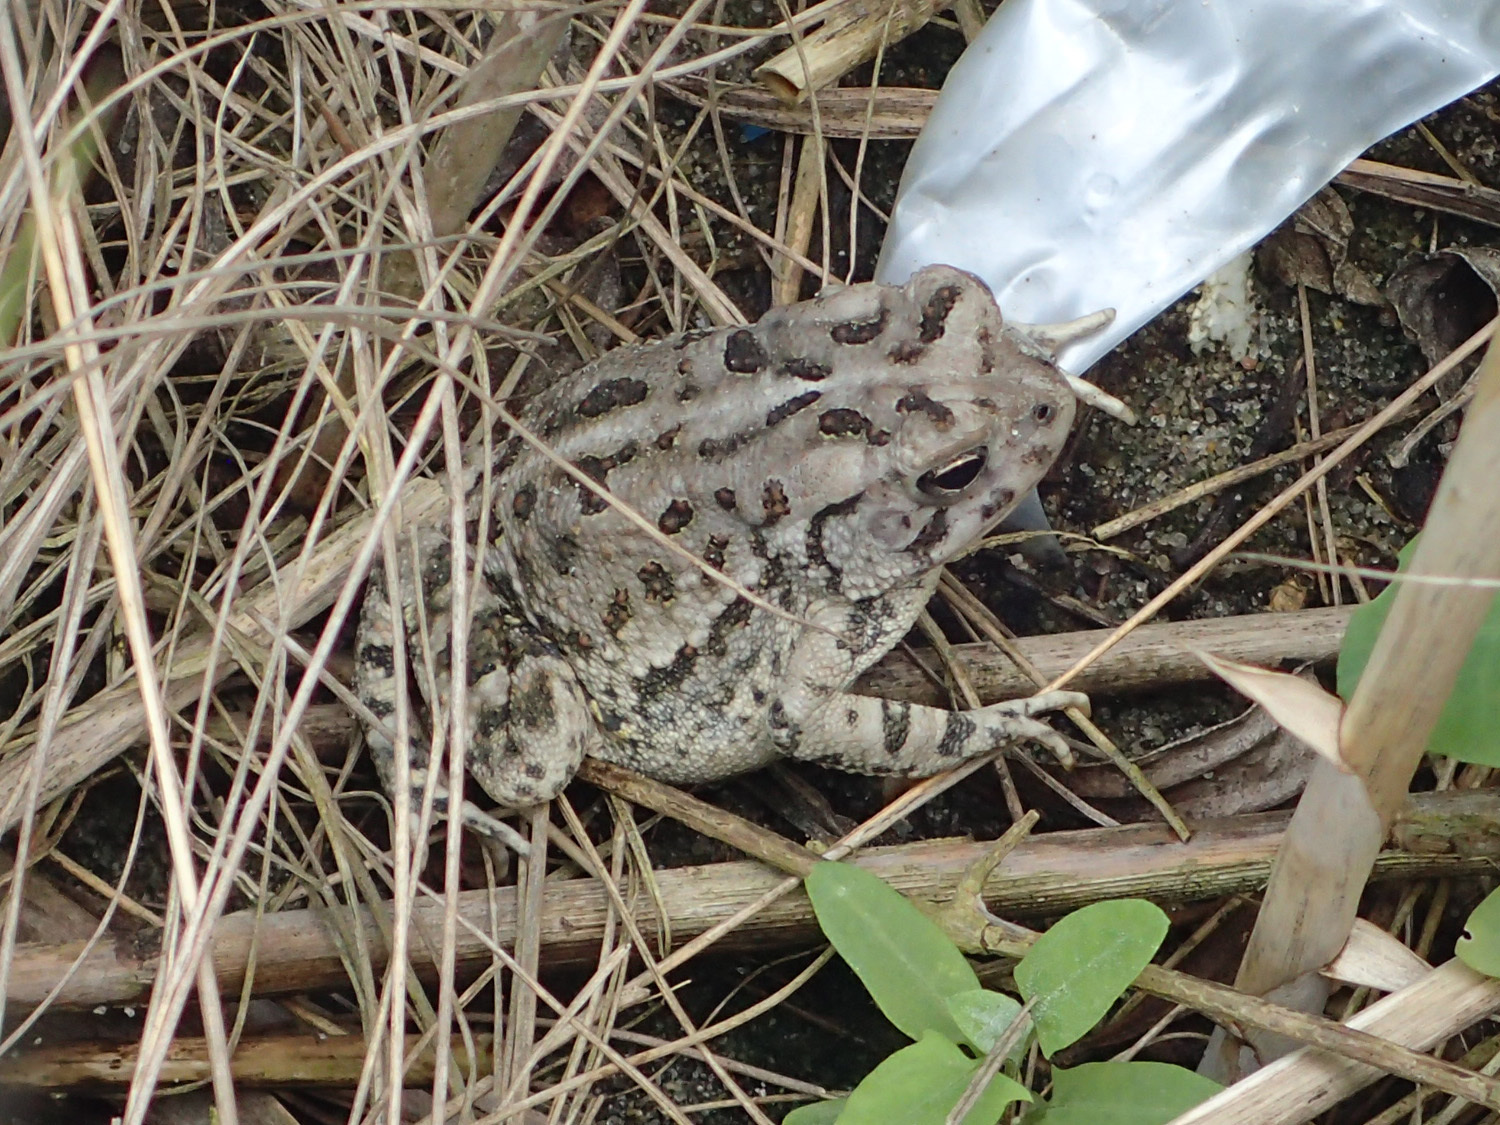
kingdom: Animalia
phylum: Chordata
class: Amphibia
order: Anura
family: Bufonidae
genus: Anaxyrus
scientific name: Anaxyrus fowleri
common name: Fowler's toad
